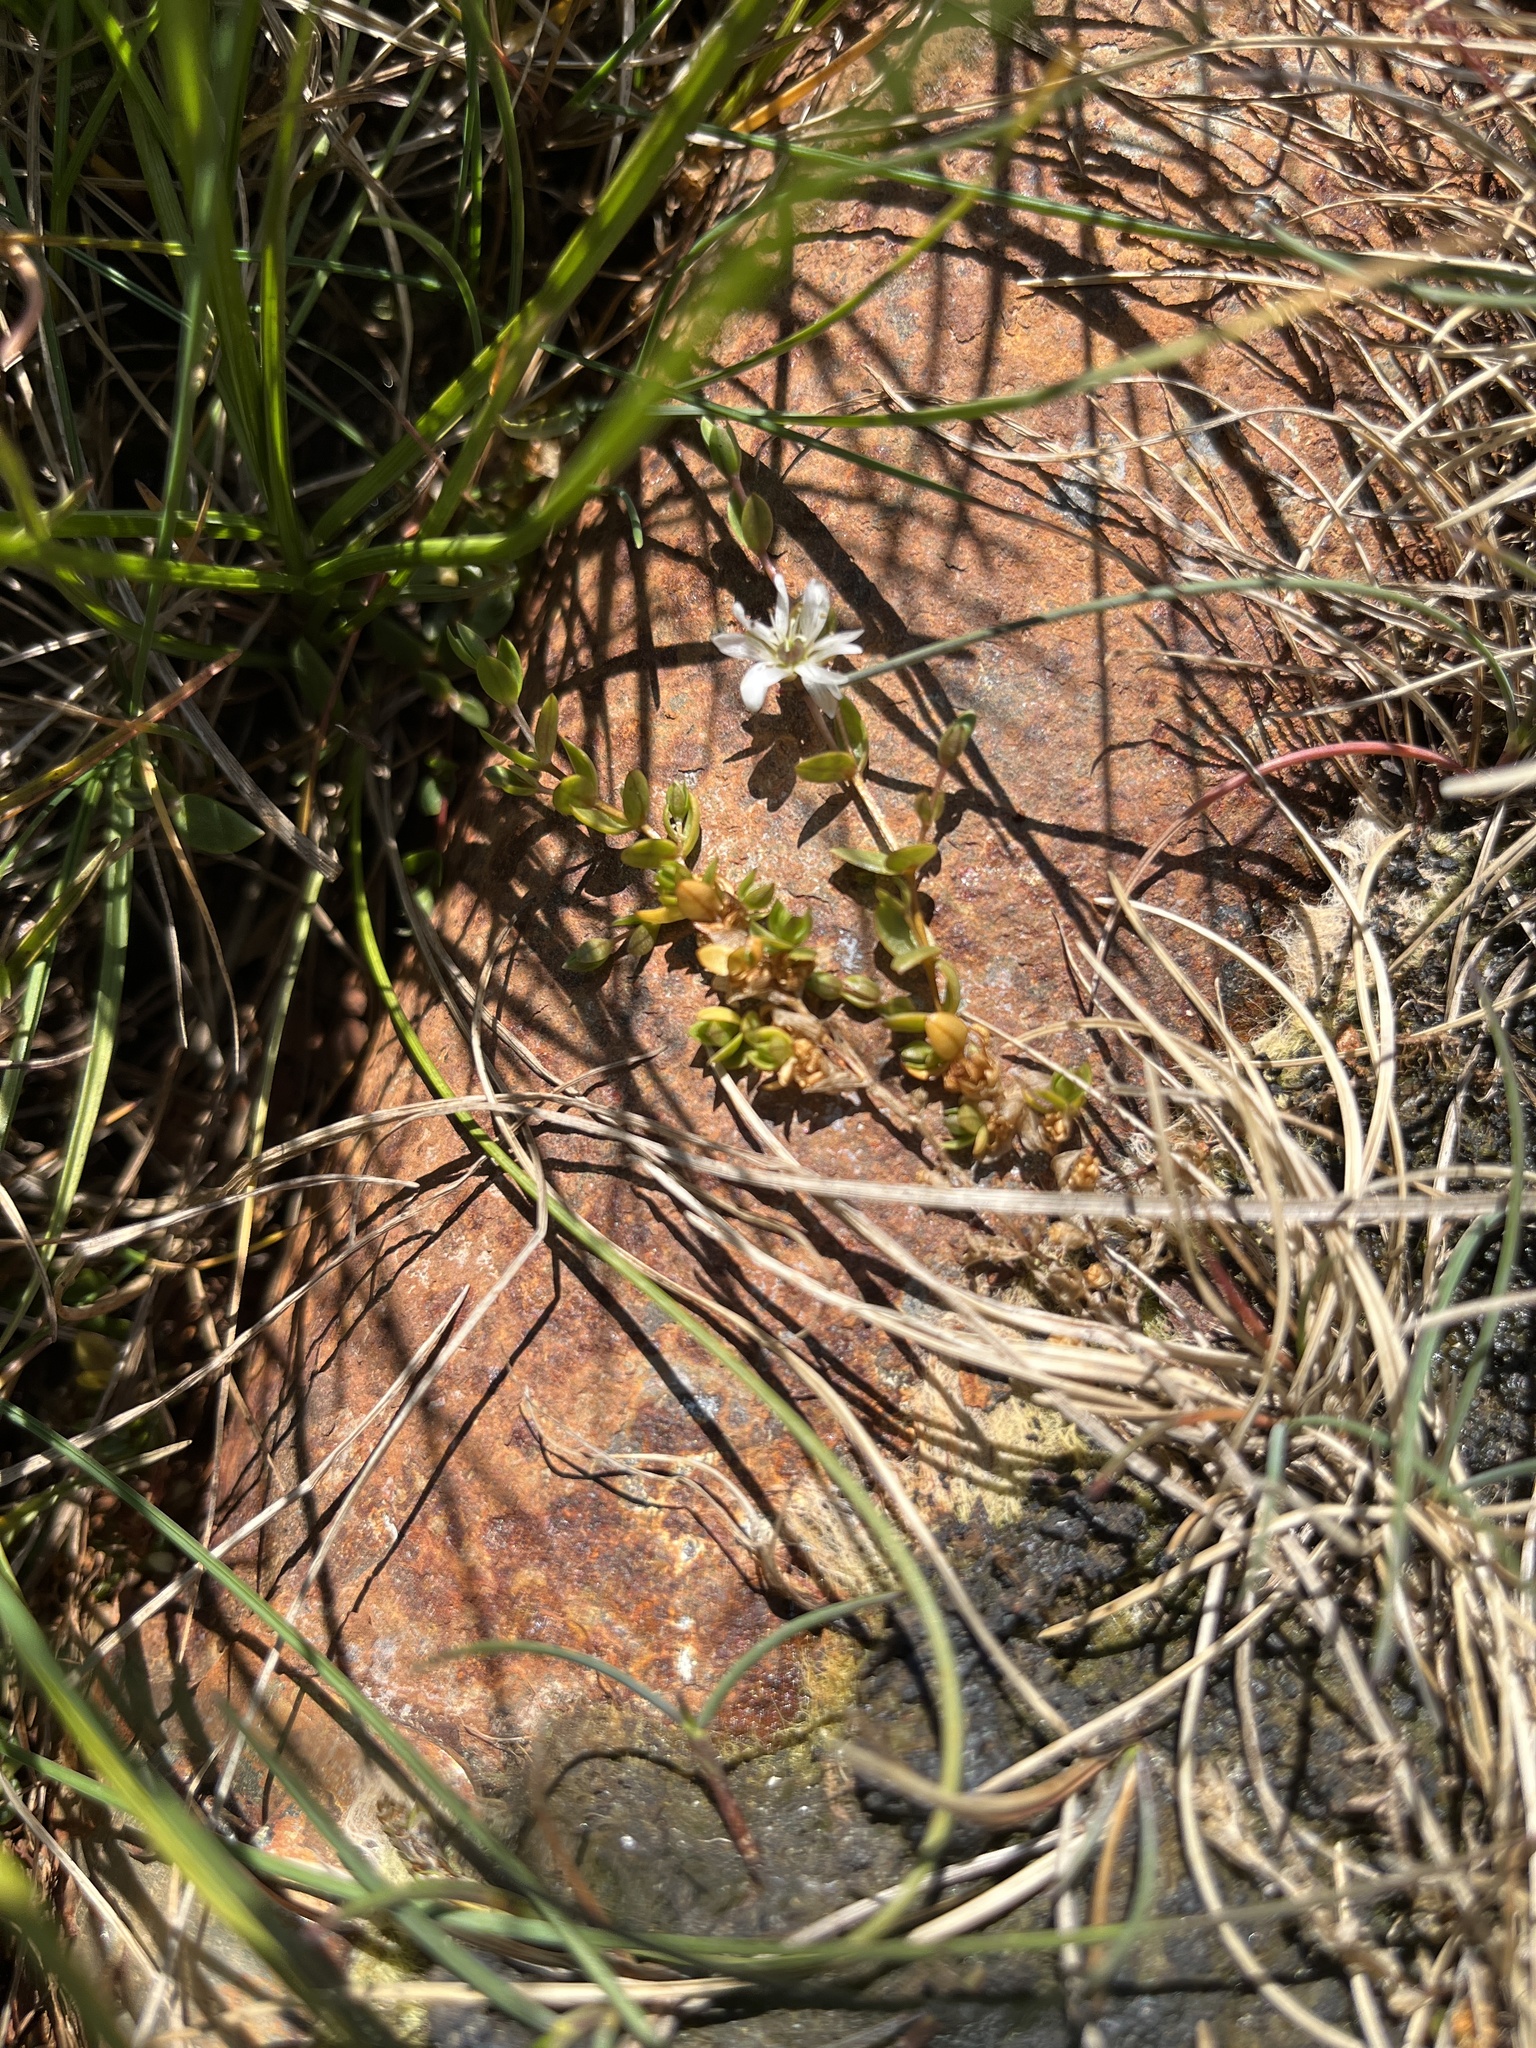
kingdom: Plantae
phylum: Tracheophyta
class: Magnoliopsida
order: Caryophyllales
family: Caryophyllaceae
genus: Stellaria
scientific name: Stellaria humifusa
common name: Creeping starwort
